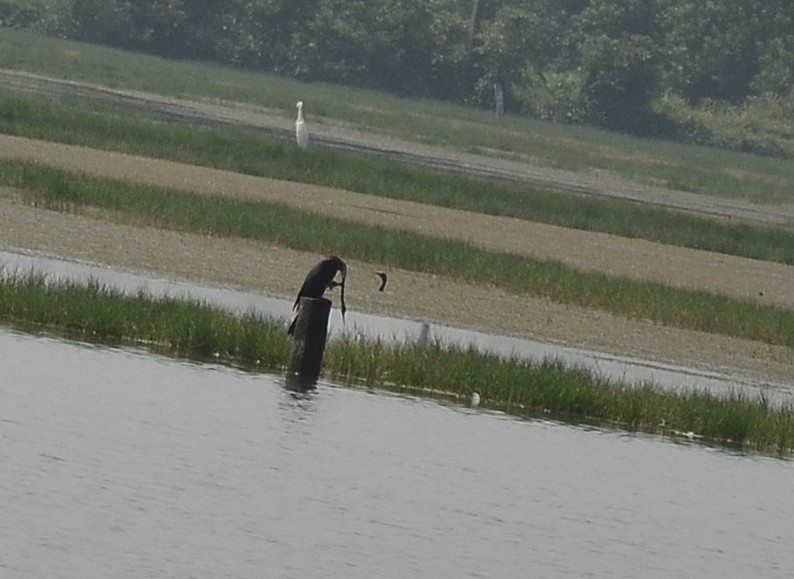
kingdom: Animalia
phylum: Chordata
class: Aves
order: Suliformes
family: Anhingidae
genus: Anhinga
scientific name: Anhinga melanogaster
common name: Oriental darter
